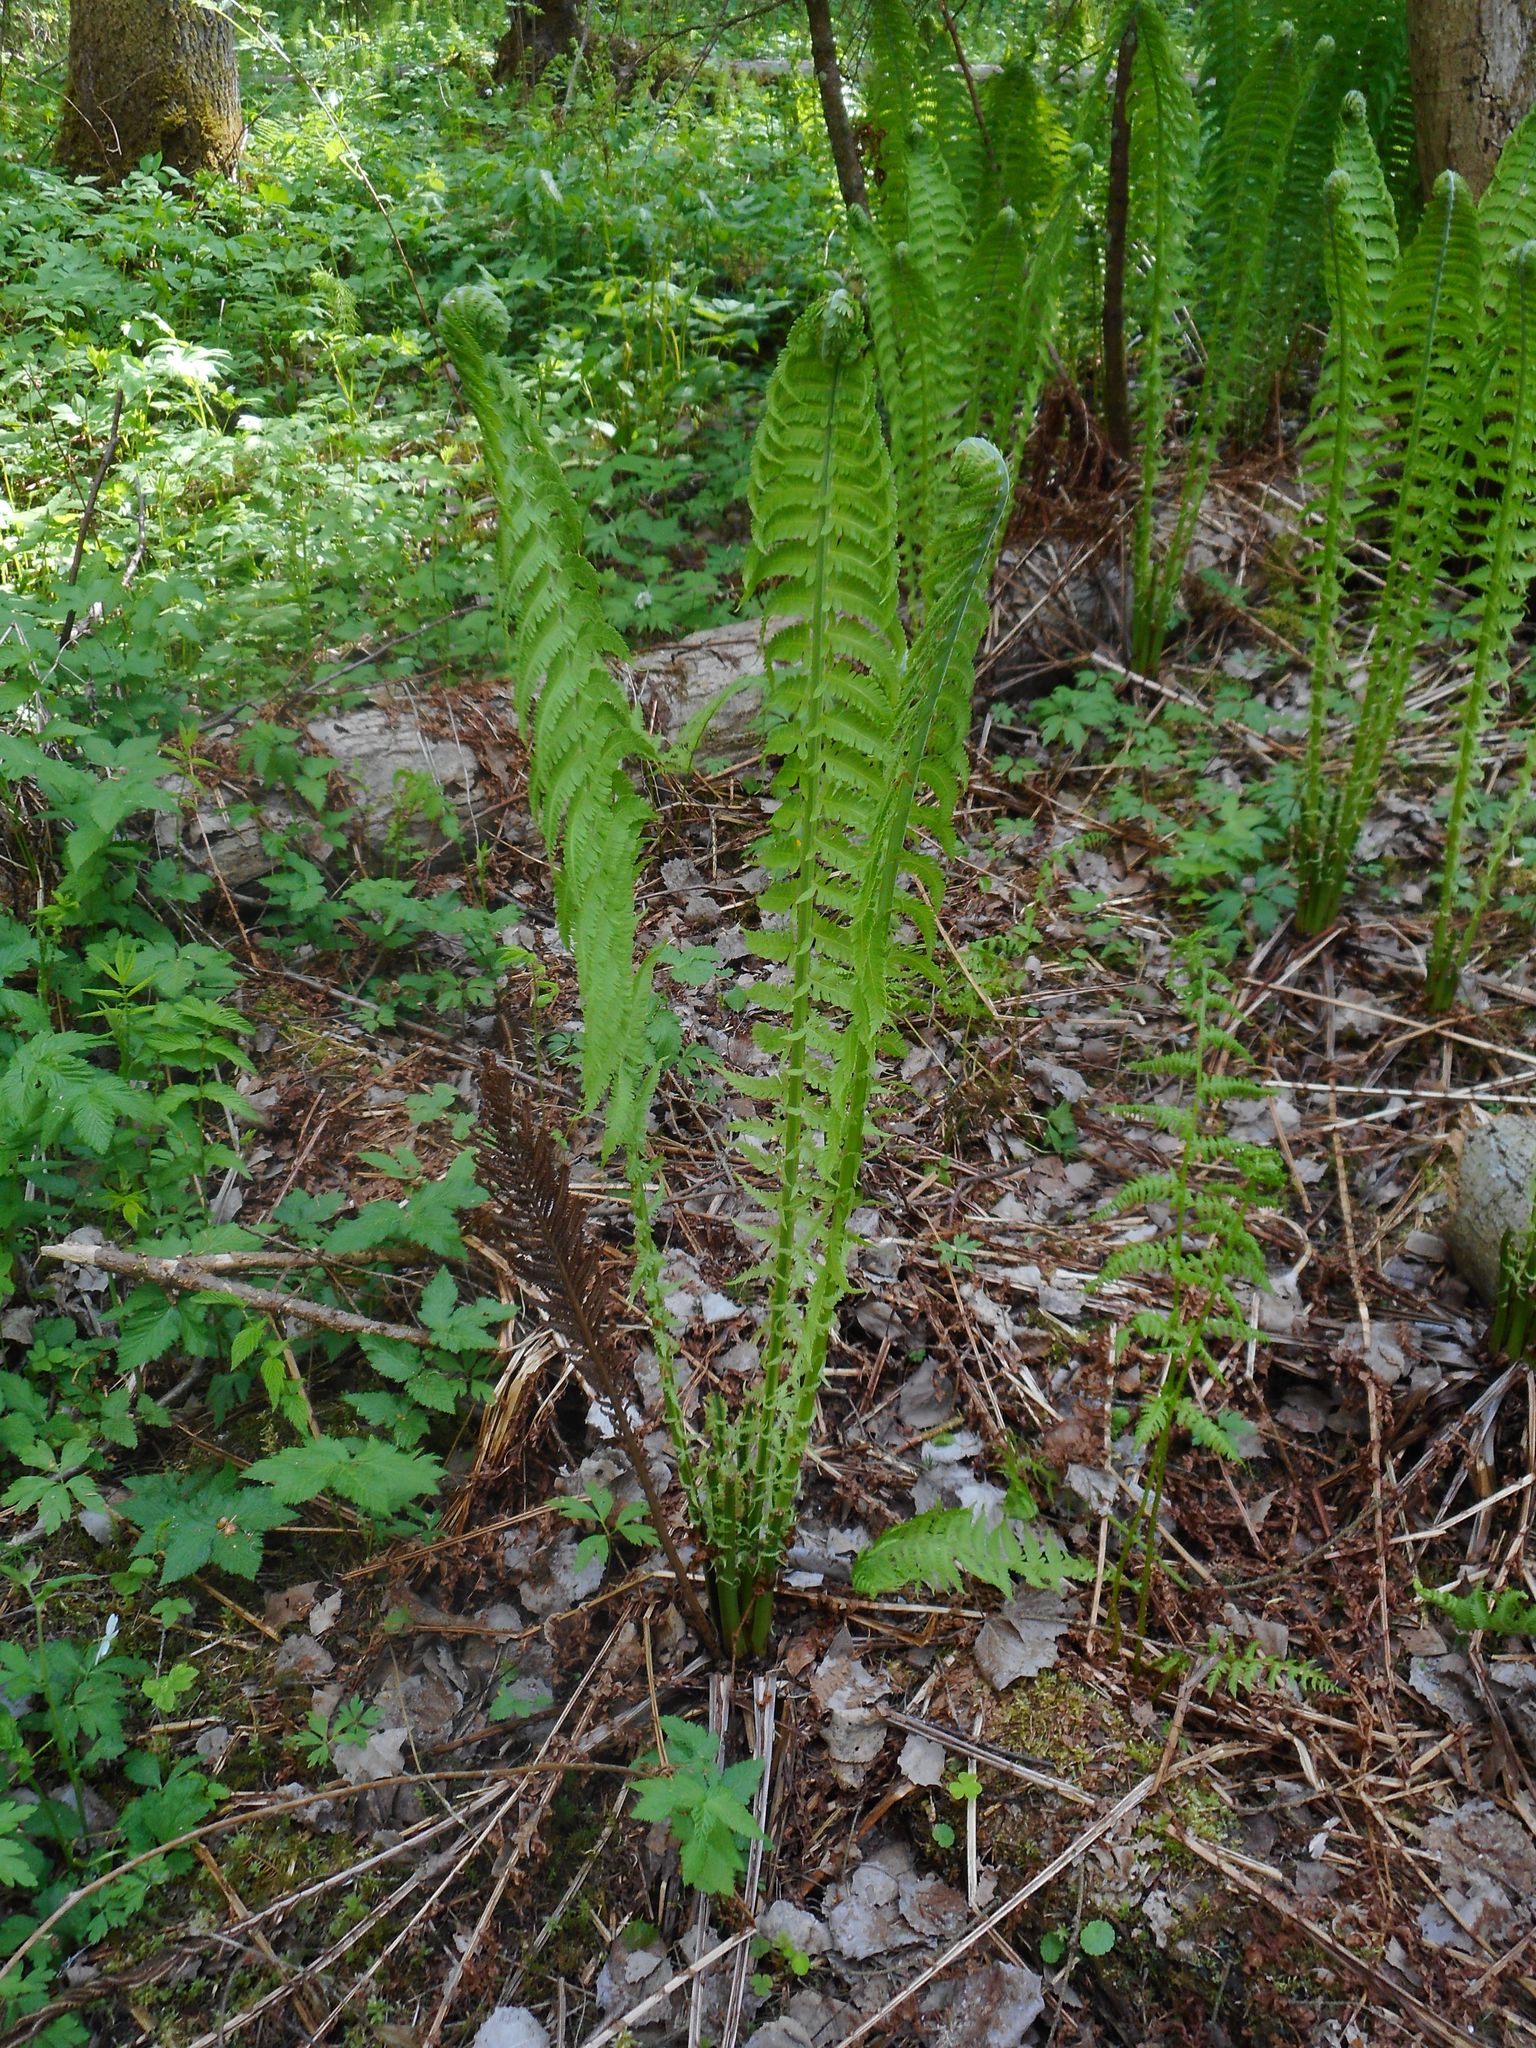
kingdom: Plantae
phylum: Tracheophyta
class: Polypodiopsida
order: Polypodiales
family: Onocleaceae
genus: Matteuccia
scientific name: Matteuccia struthiopteris
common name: Ostrich fern
